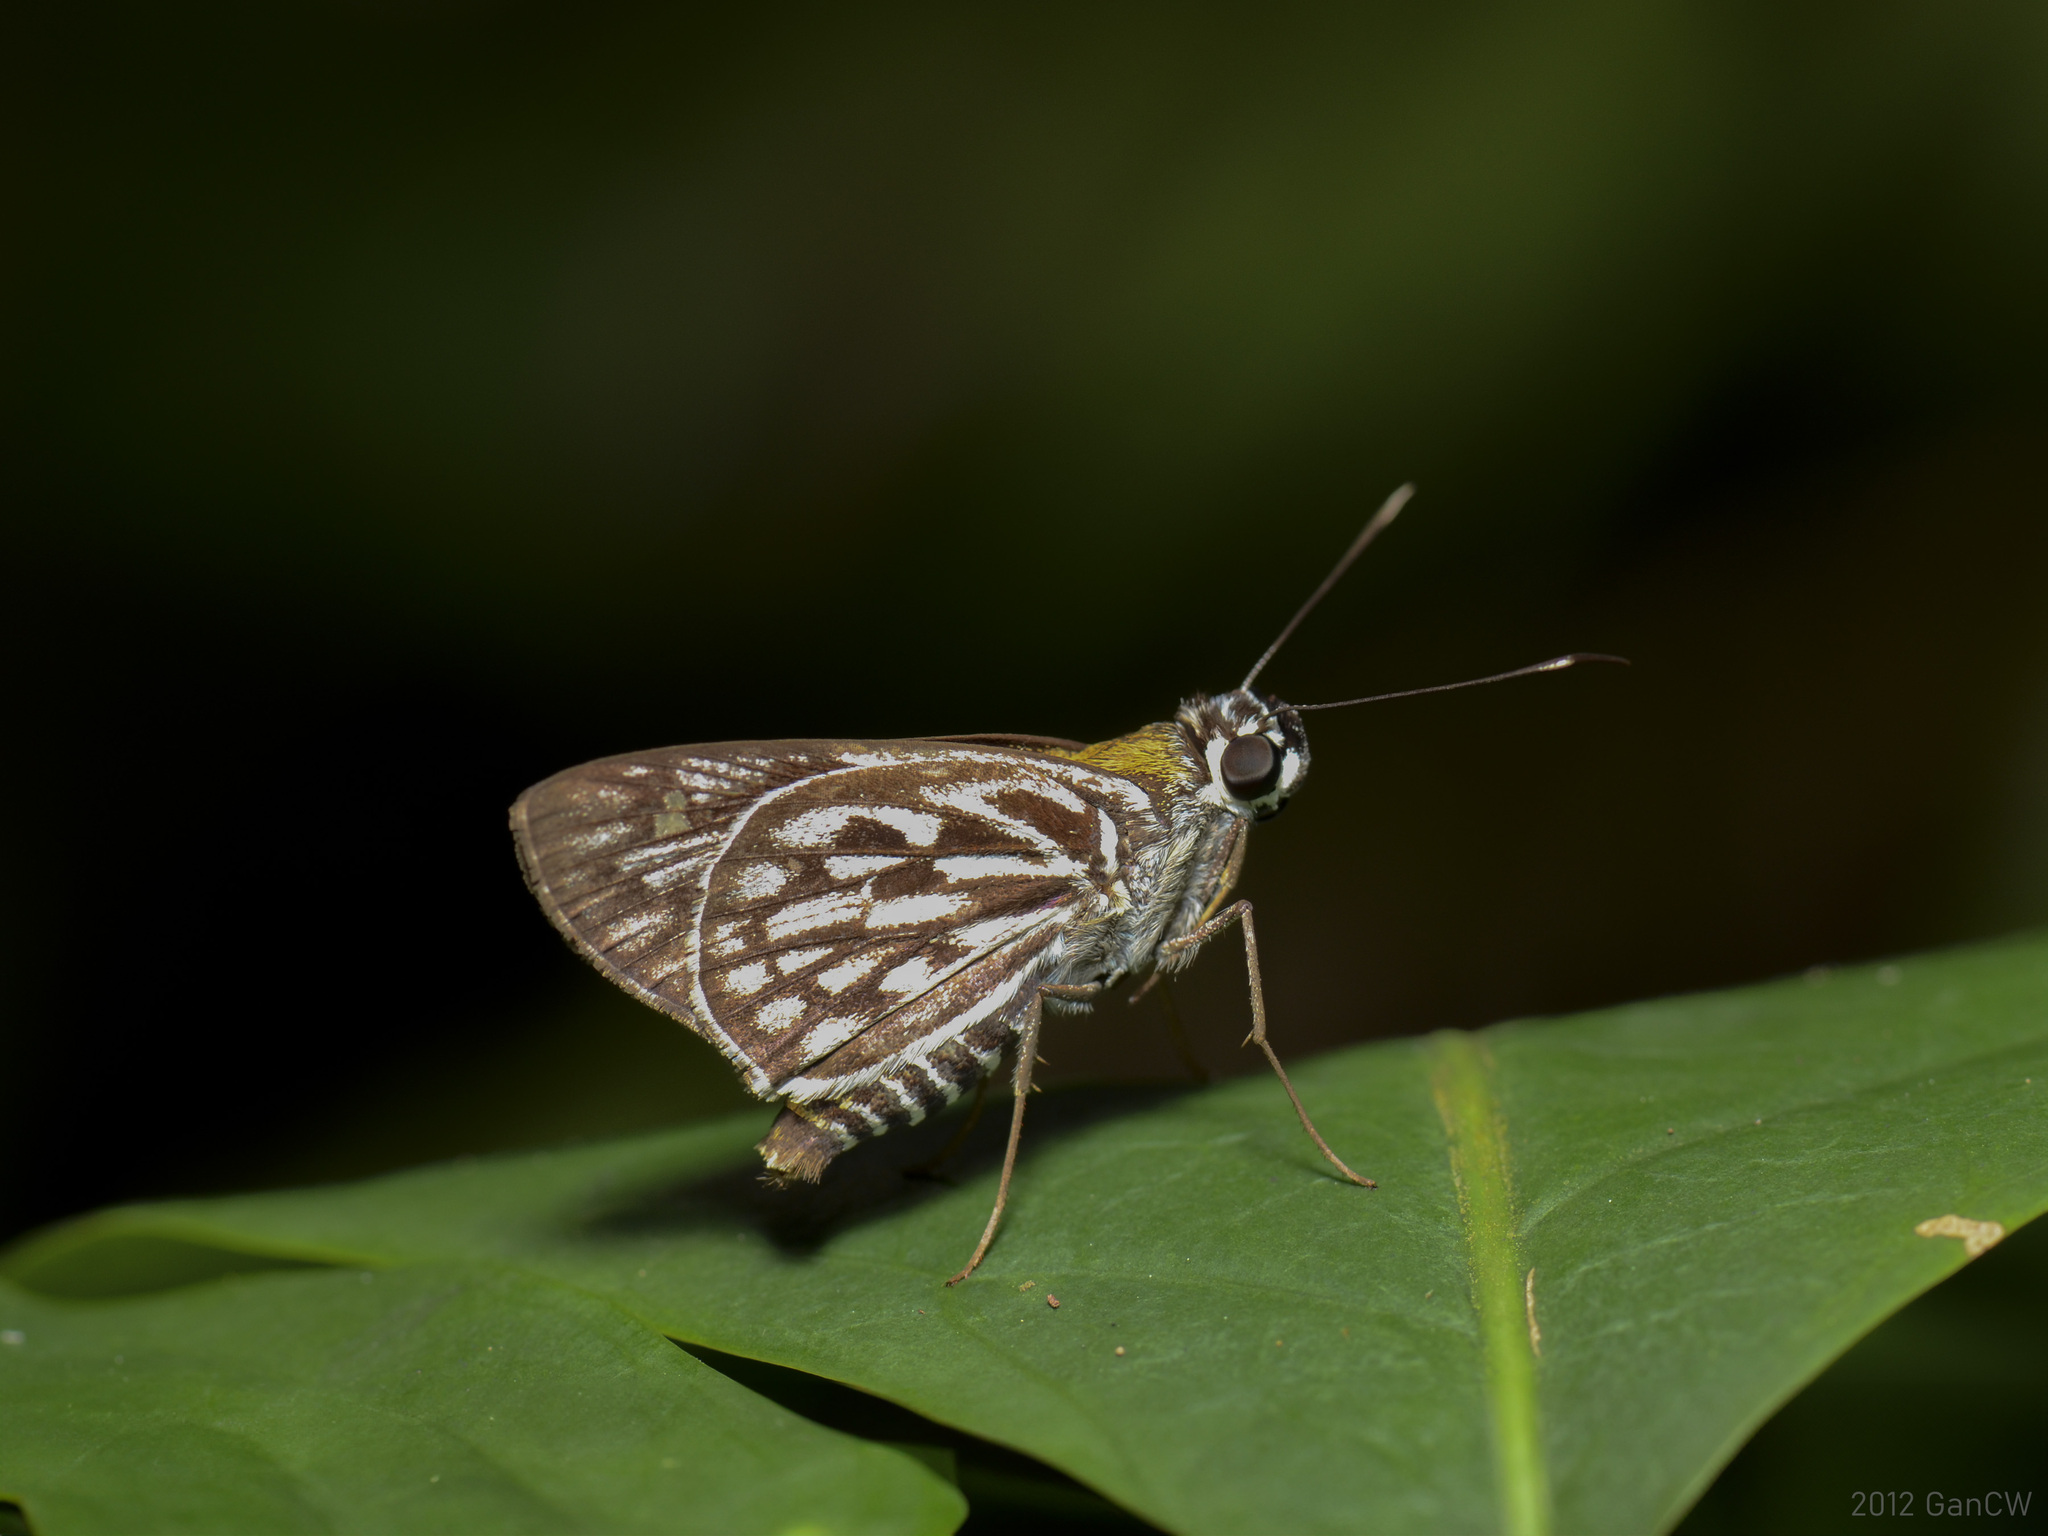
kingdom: Animalia
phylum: Arthropoda
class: Insecta
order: Lepidoptera
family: Hesperiidae
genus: Plastingia
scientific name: Plastingia naga
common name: Chequered lancer
